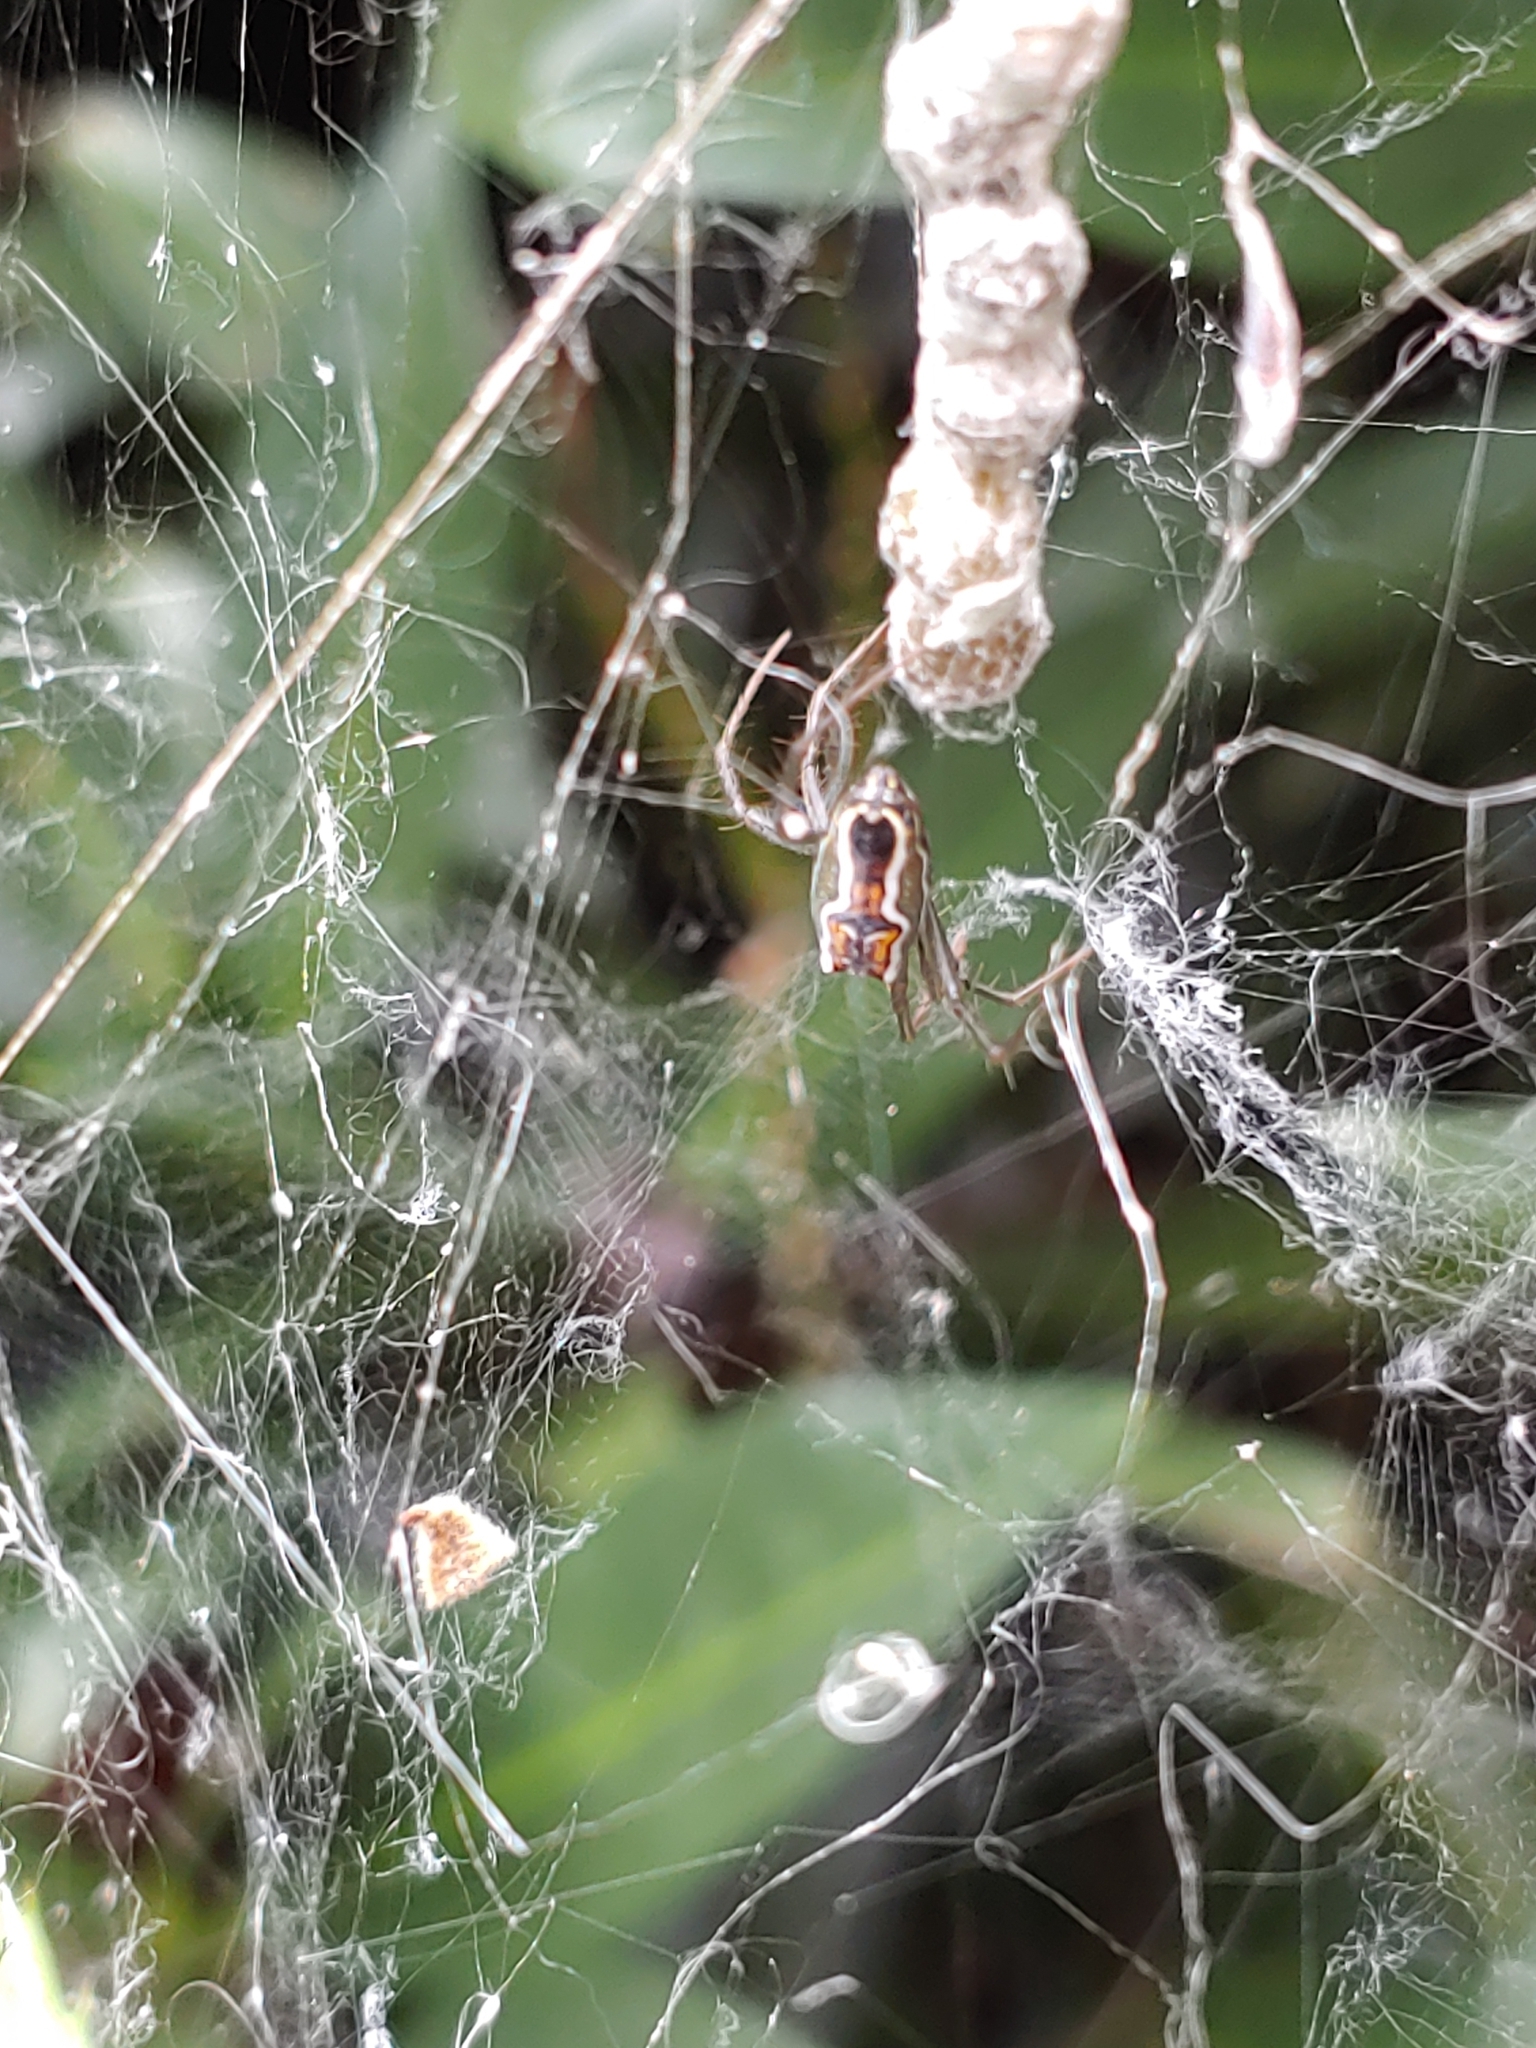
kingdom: Animalia
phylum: Arthropoda
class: Arachnida
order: Araneae
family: Araneidae
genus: Mecynogea
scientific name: Mecynogea lemniscata
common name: Orb weavers
